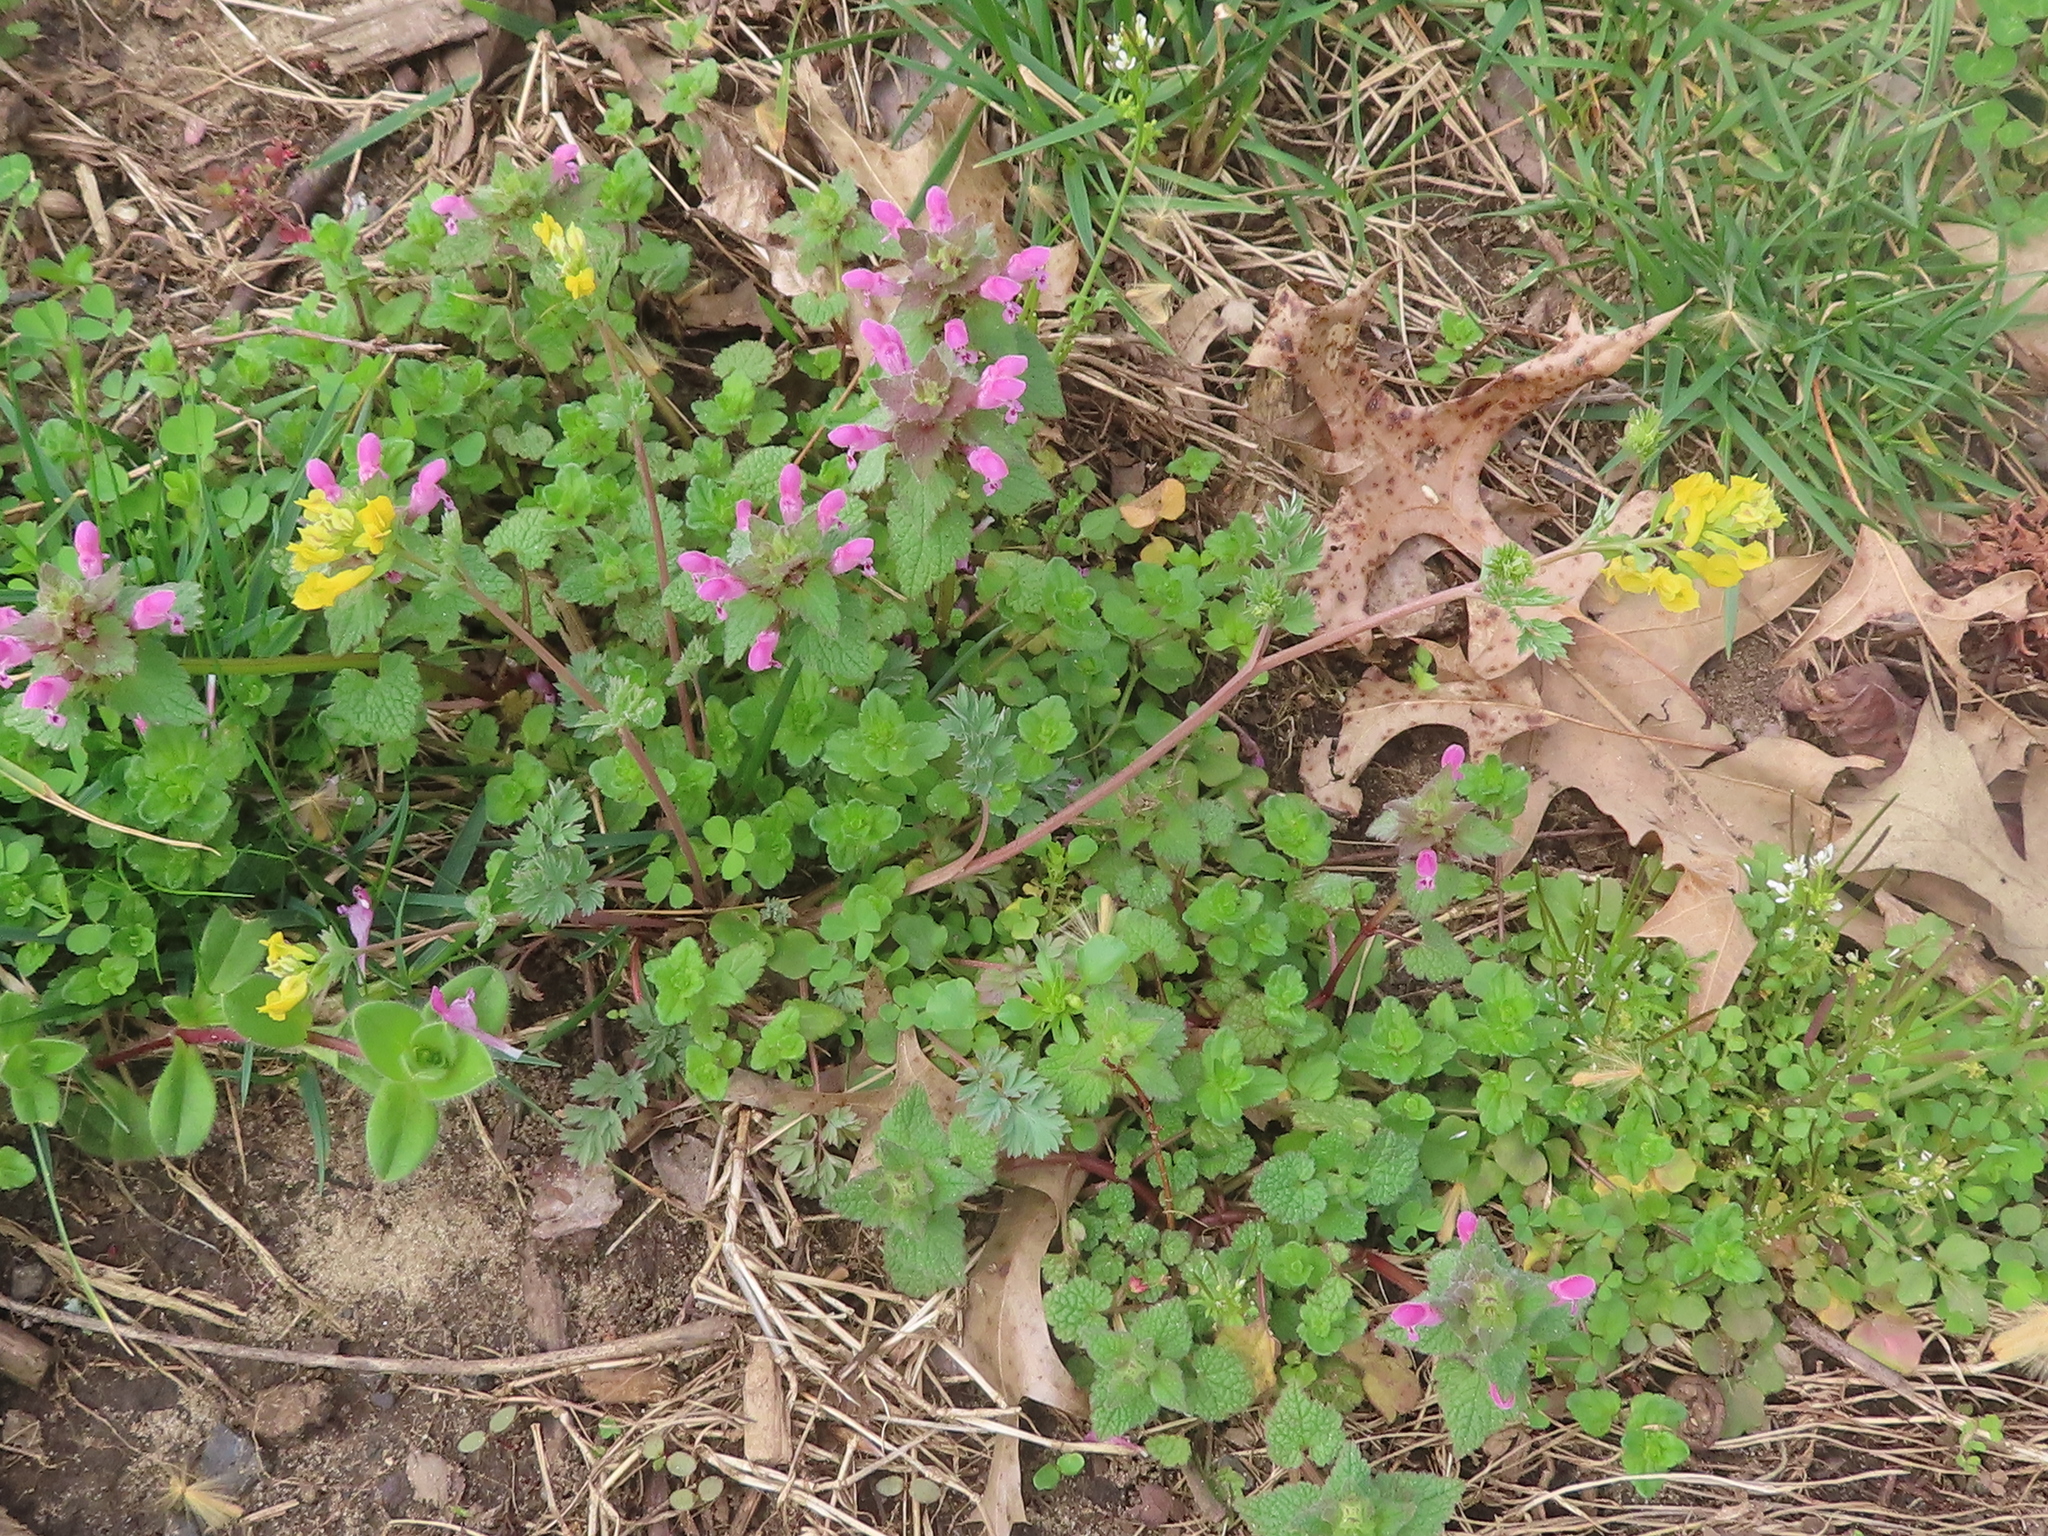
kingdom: Plantae
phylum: Tracheophyta
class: Magnoliopsida
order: Ranunculales
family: Papaveraceae
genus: Corydalis
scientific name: Corydalis flavula
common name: Yellow corydalis
